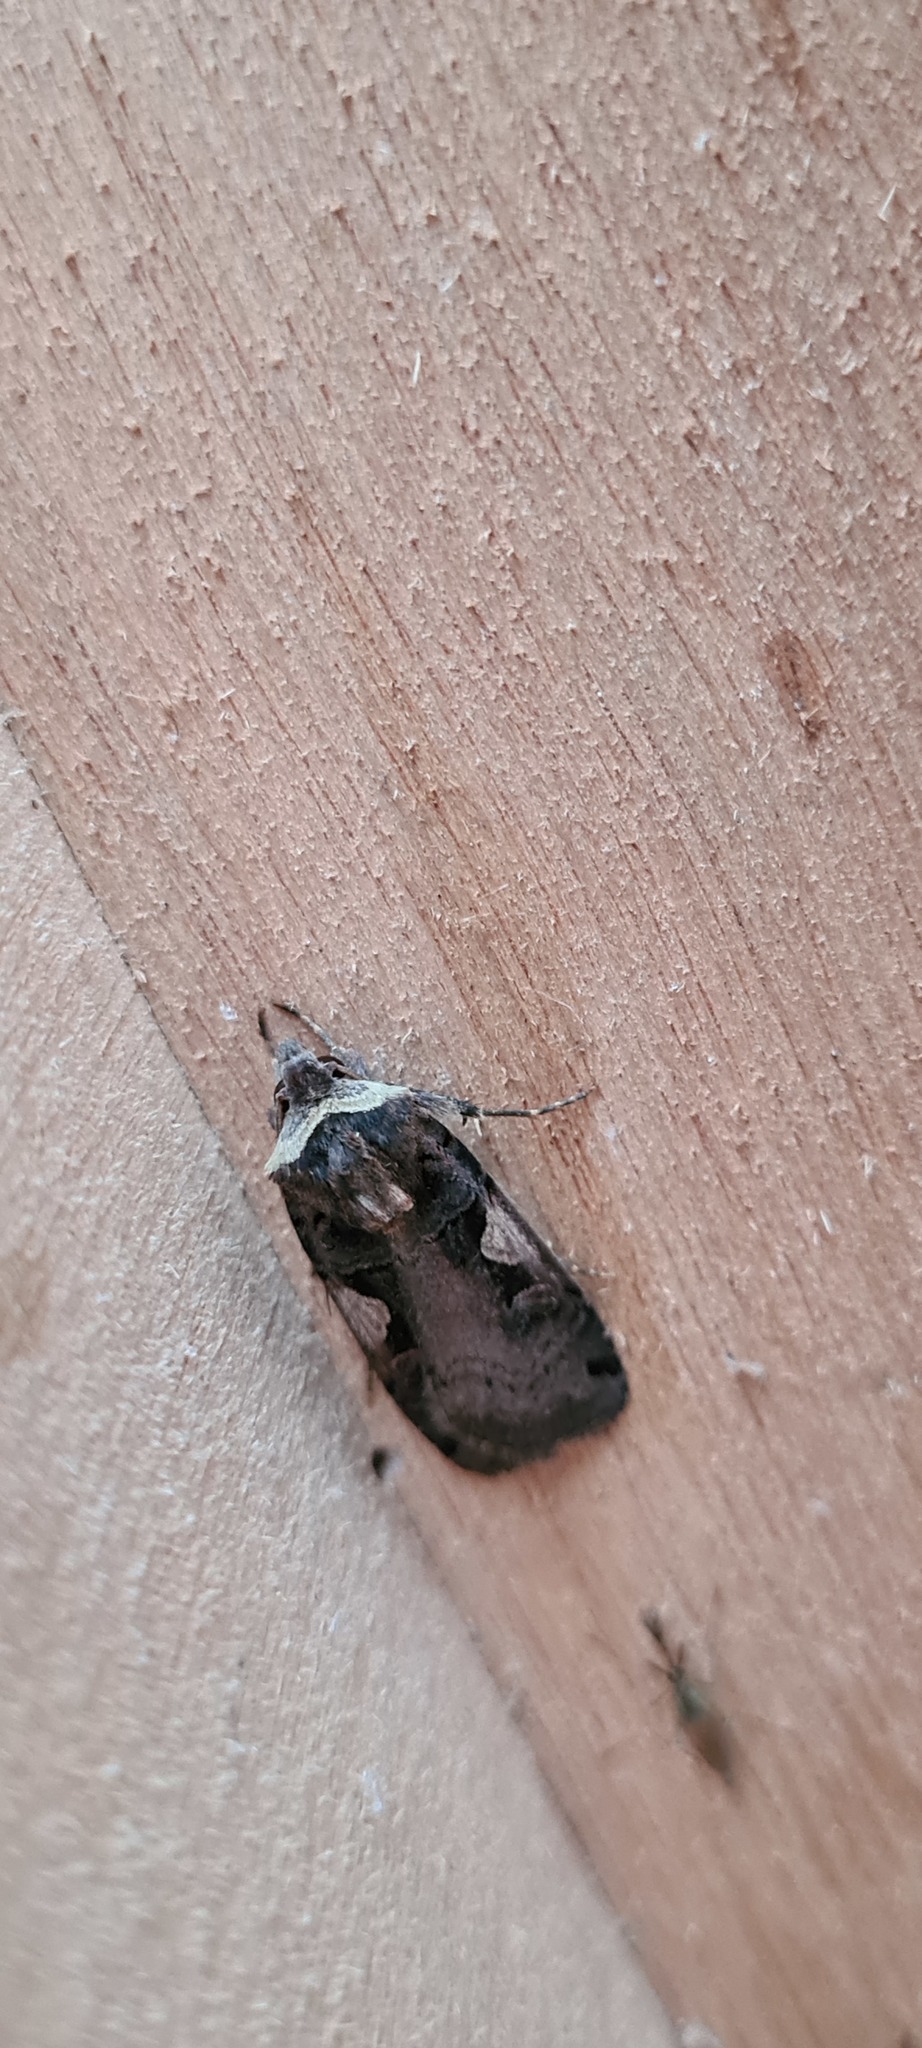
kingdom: Animalia
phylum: Arthropoda
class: Insecta
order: Lepidoptera
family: Noctuidae
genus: Xestia
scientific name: Xestia c-nigrum
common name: Setaceous hebrew character
